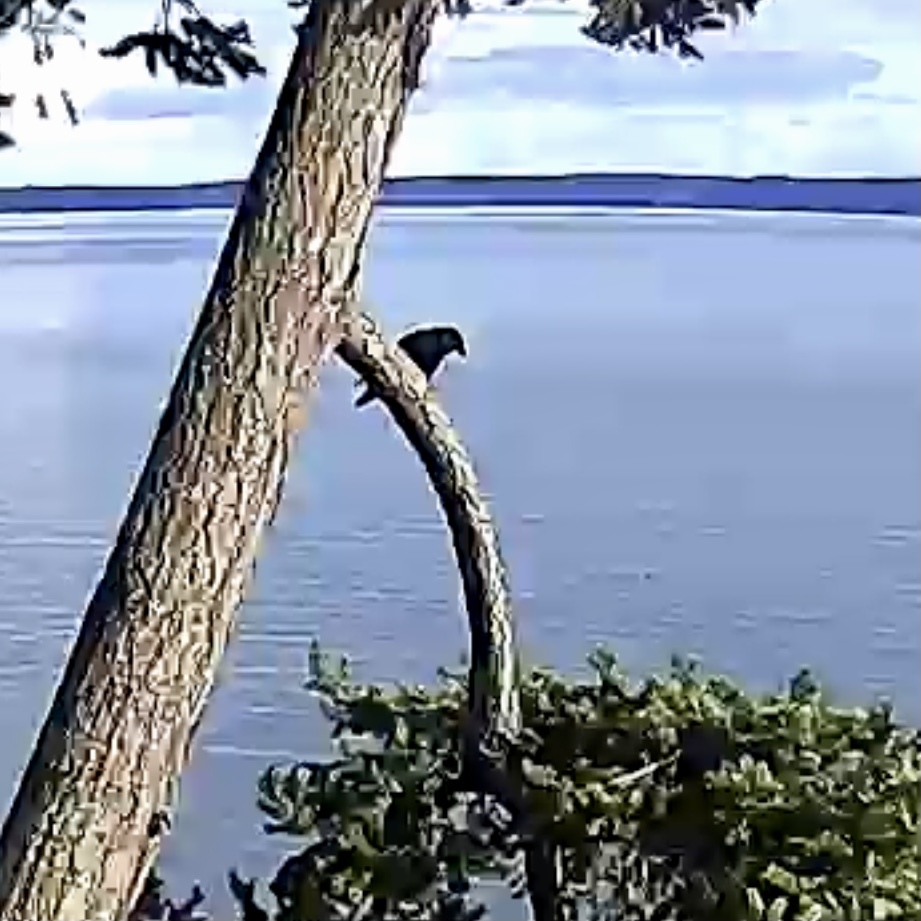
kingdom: Animalia
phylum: Chordata
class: Aves
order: Passeriformes
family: Corvidae
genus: Corvus
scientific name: Corvus corax
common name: Common raven
